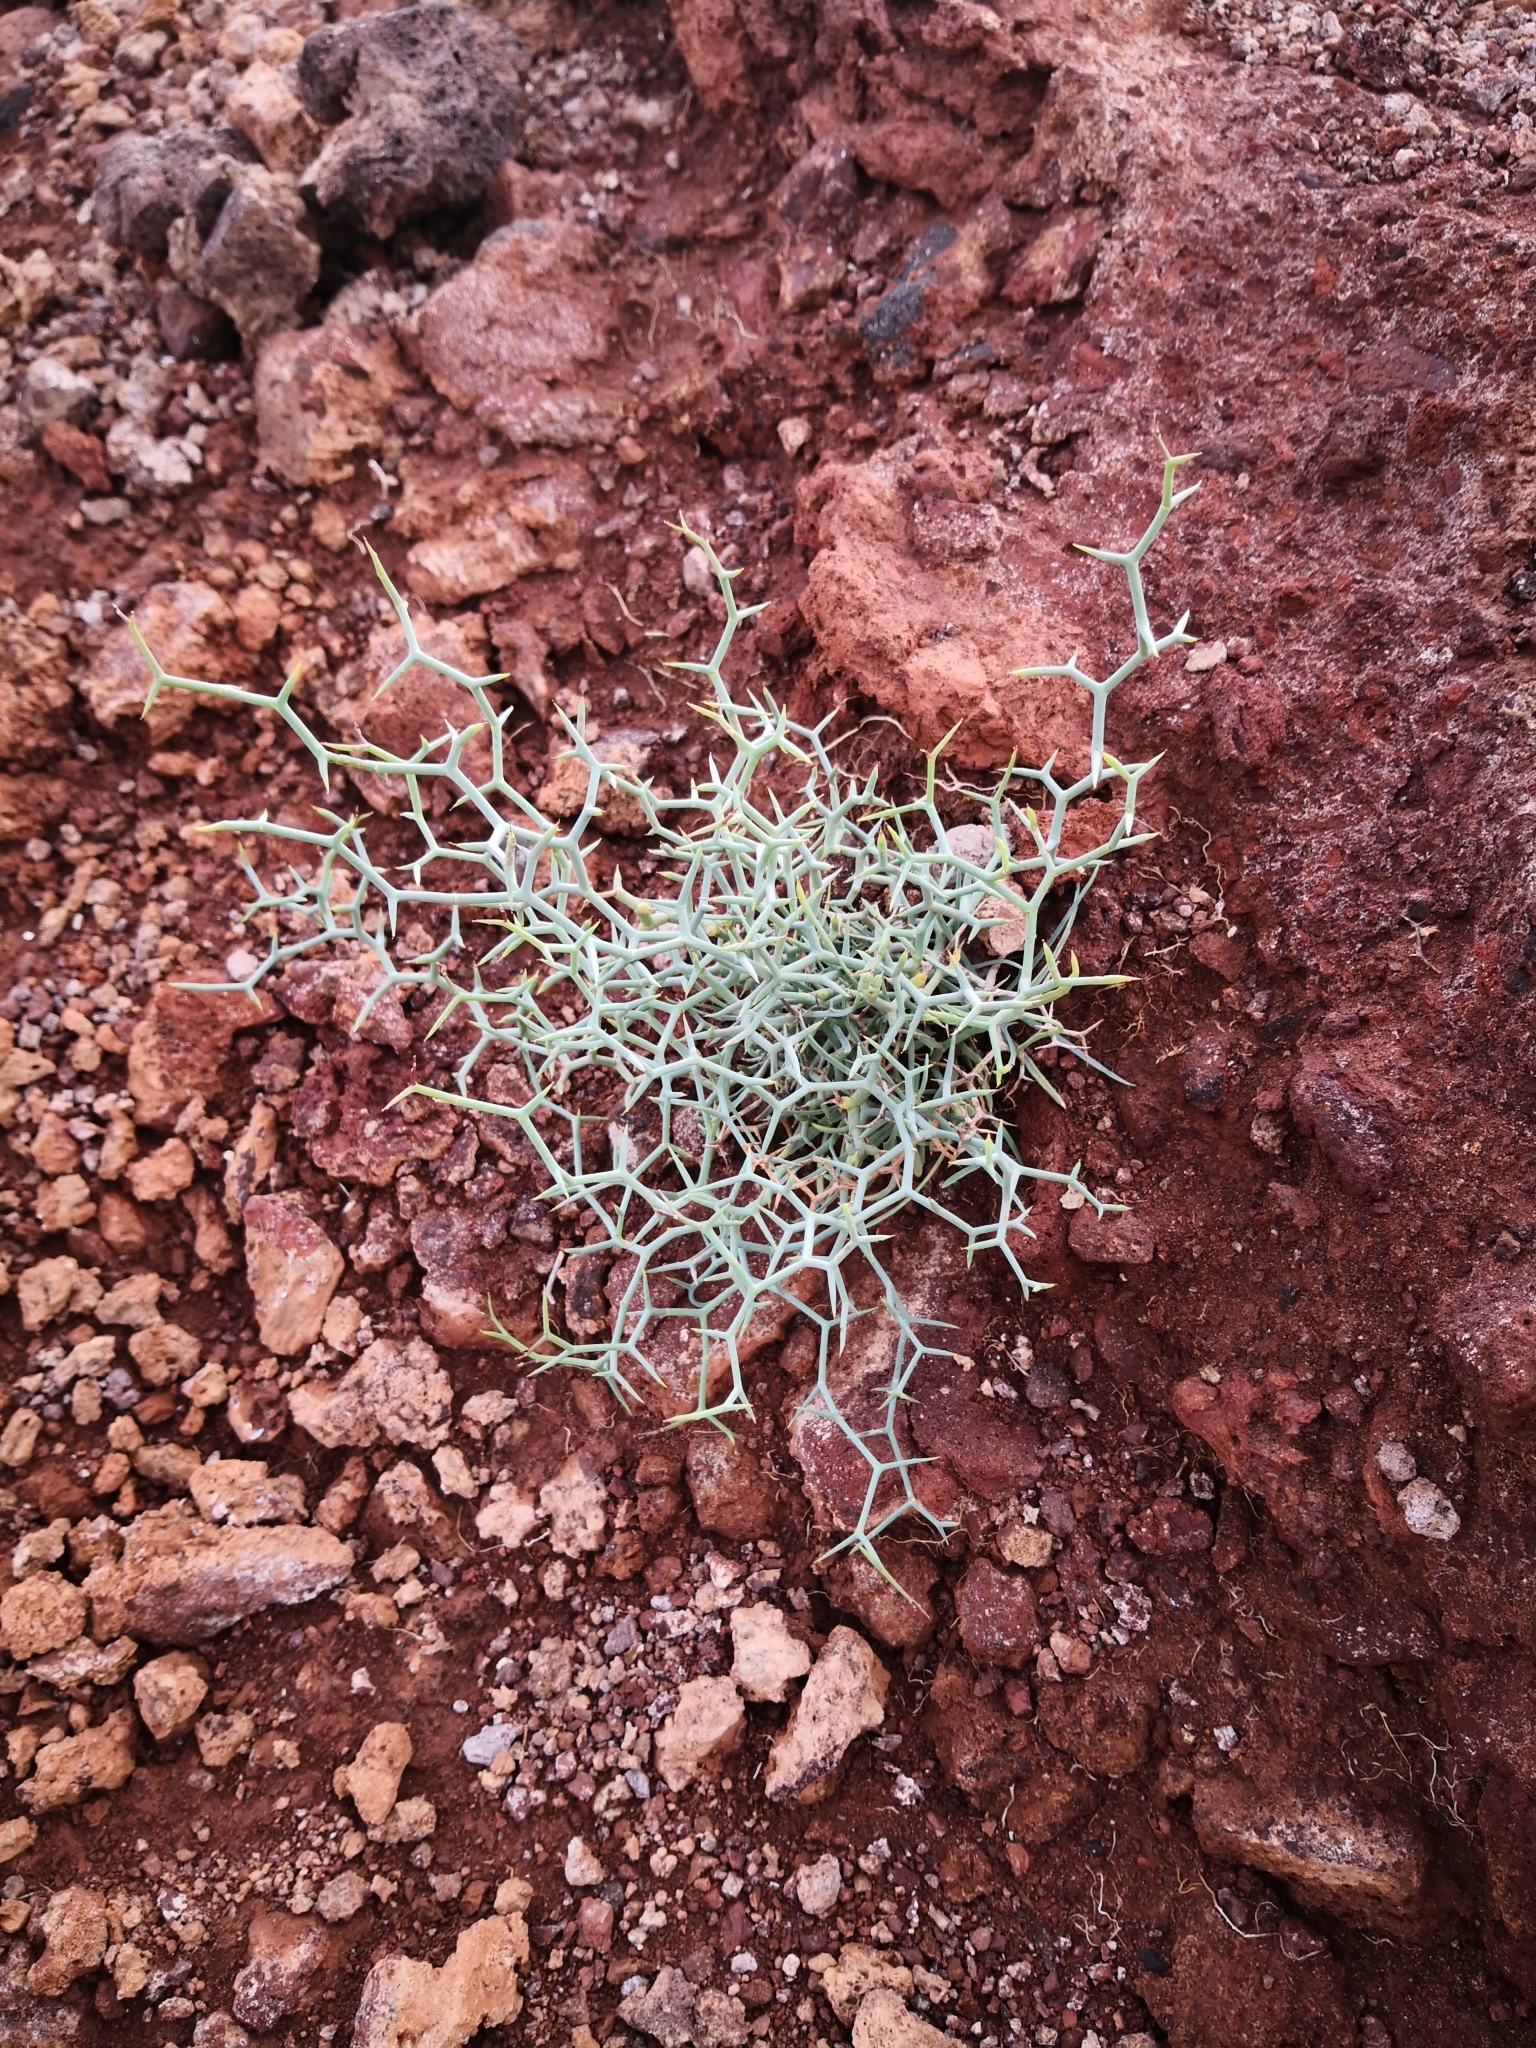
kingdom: Plantae
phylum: Tracheophyta
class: Magnoliopsida
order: Asterales
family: Asteraceae
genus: Launaea
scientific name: Launaea arborescens
